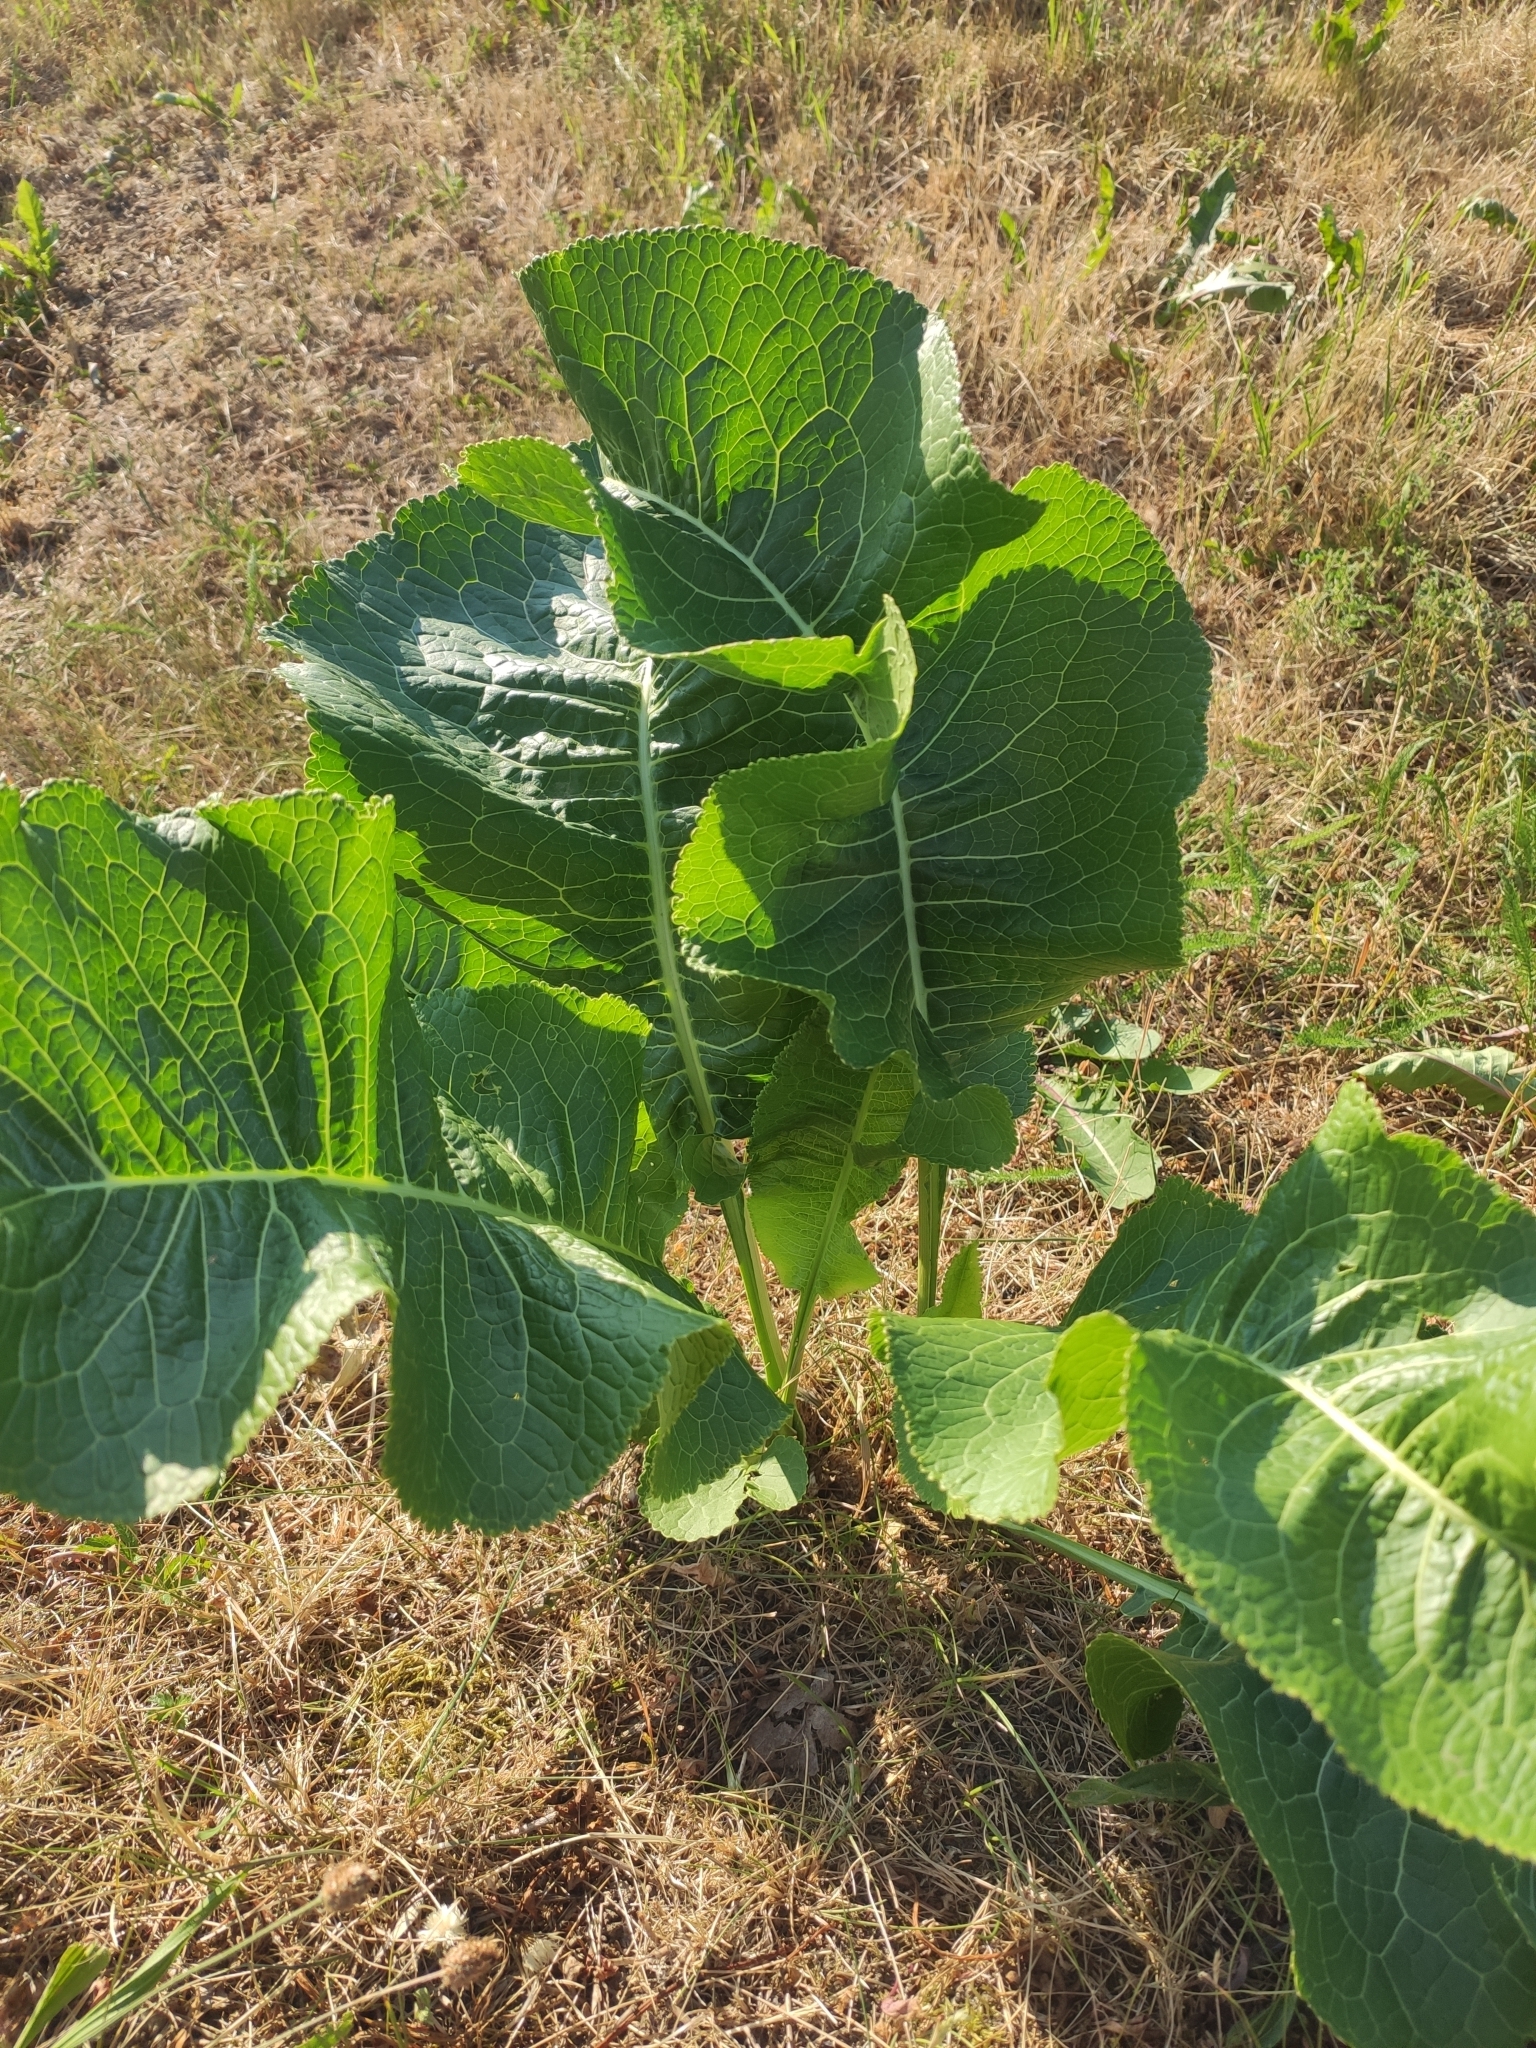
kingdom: Plantae
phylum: Tracheophyta
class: Magnoliopsida
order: Brassicales
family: Brassicaceae
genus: Armoracia
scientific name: Armoracia rusticana
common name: Horseradish
